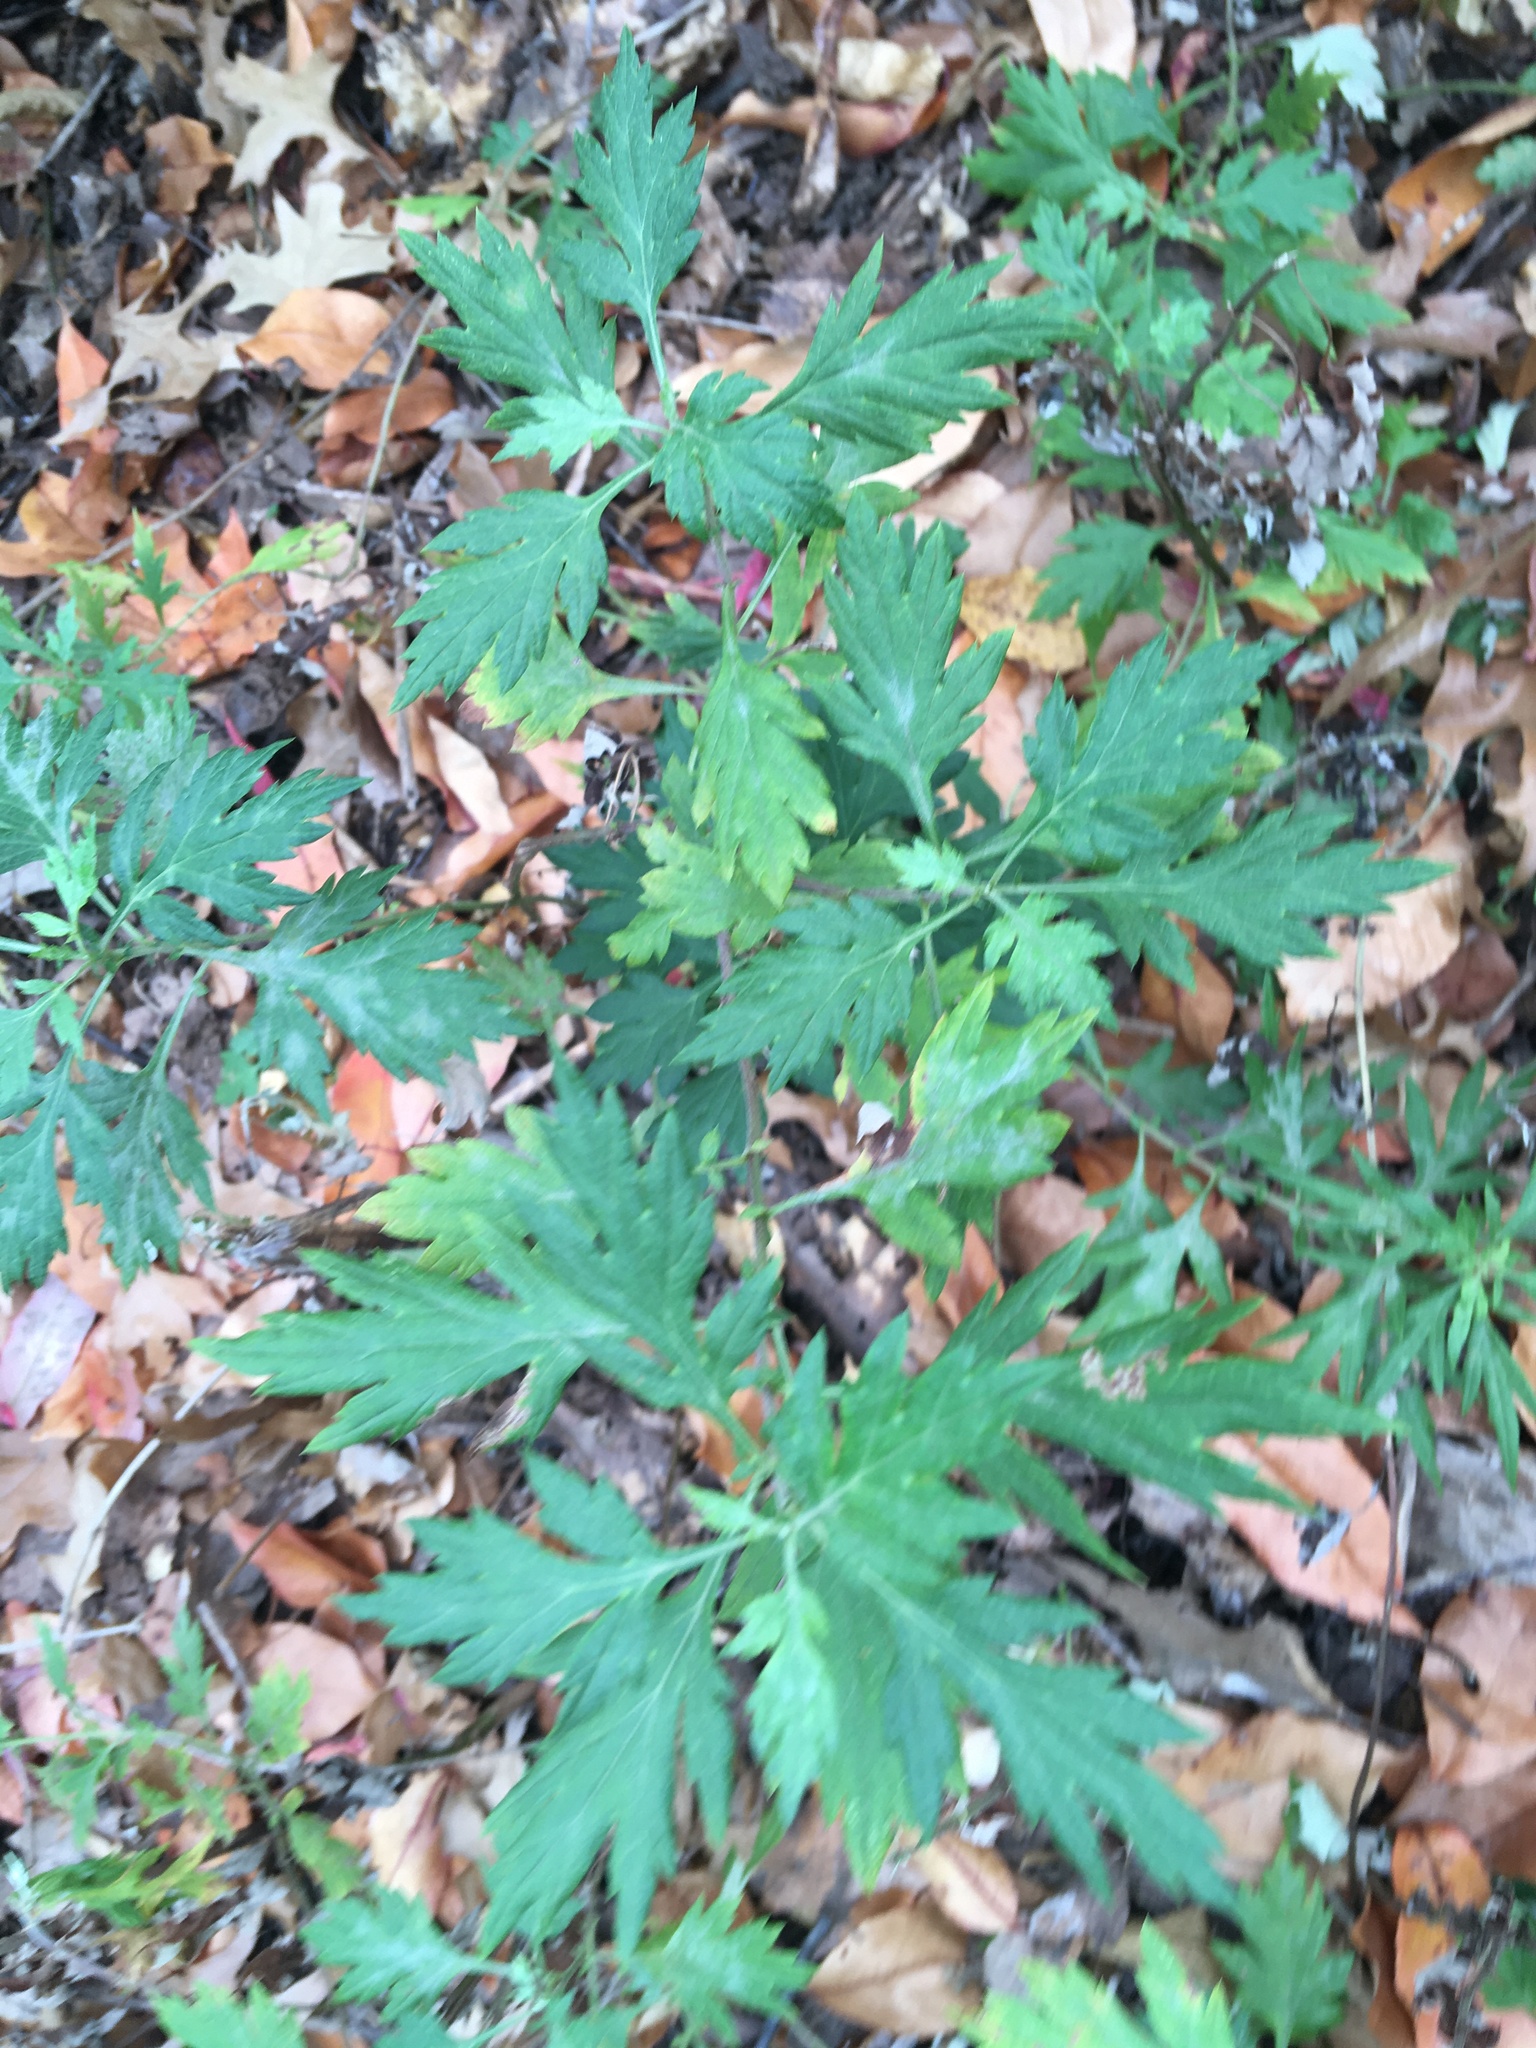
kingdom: Plantae
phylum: Tracheophyta
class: Magnoliopsida
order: Asterales
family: Asteraceae
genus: Artemisia
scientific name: Artemisia vulgaris
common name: Mugwort
